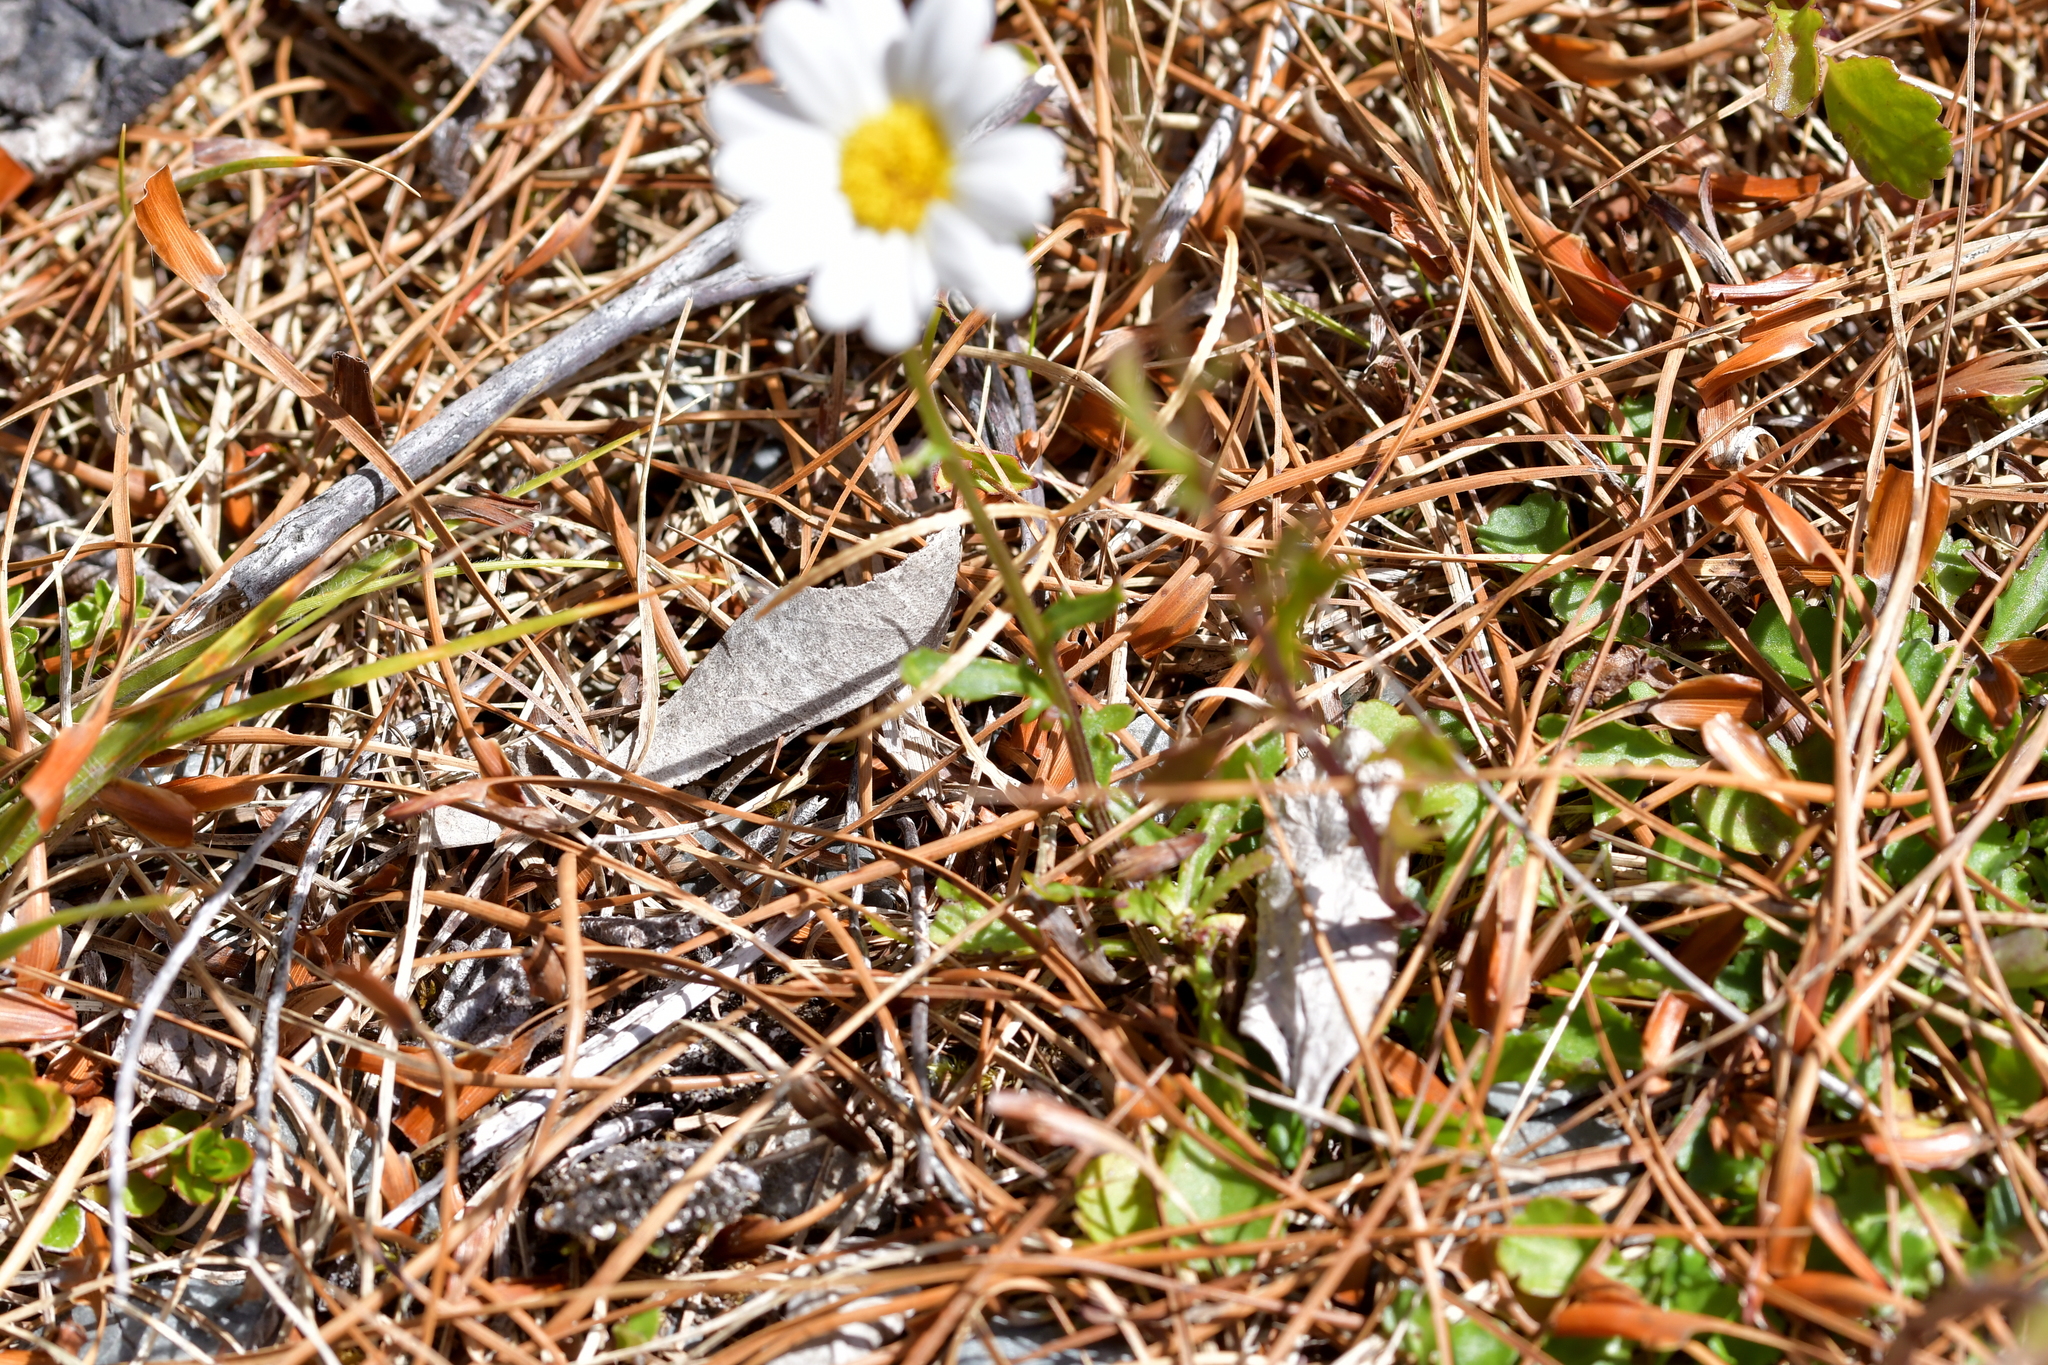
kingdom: Plantae
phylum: Tracheophyta
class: Magnoliopsida
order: Asterales
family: Asteraceae
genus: Leucanthemum
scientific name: Leucanthemum vulgare
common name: Oxeye daisy
